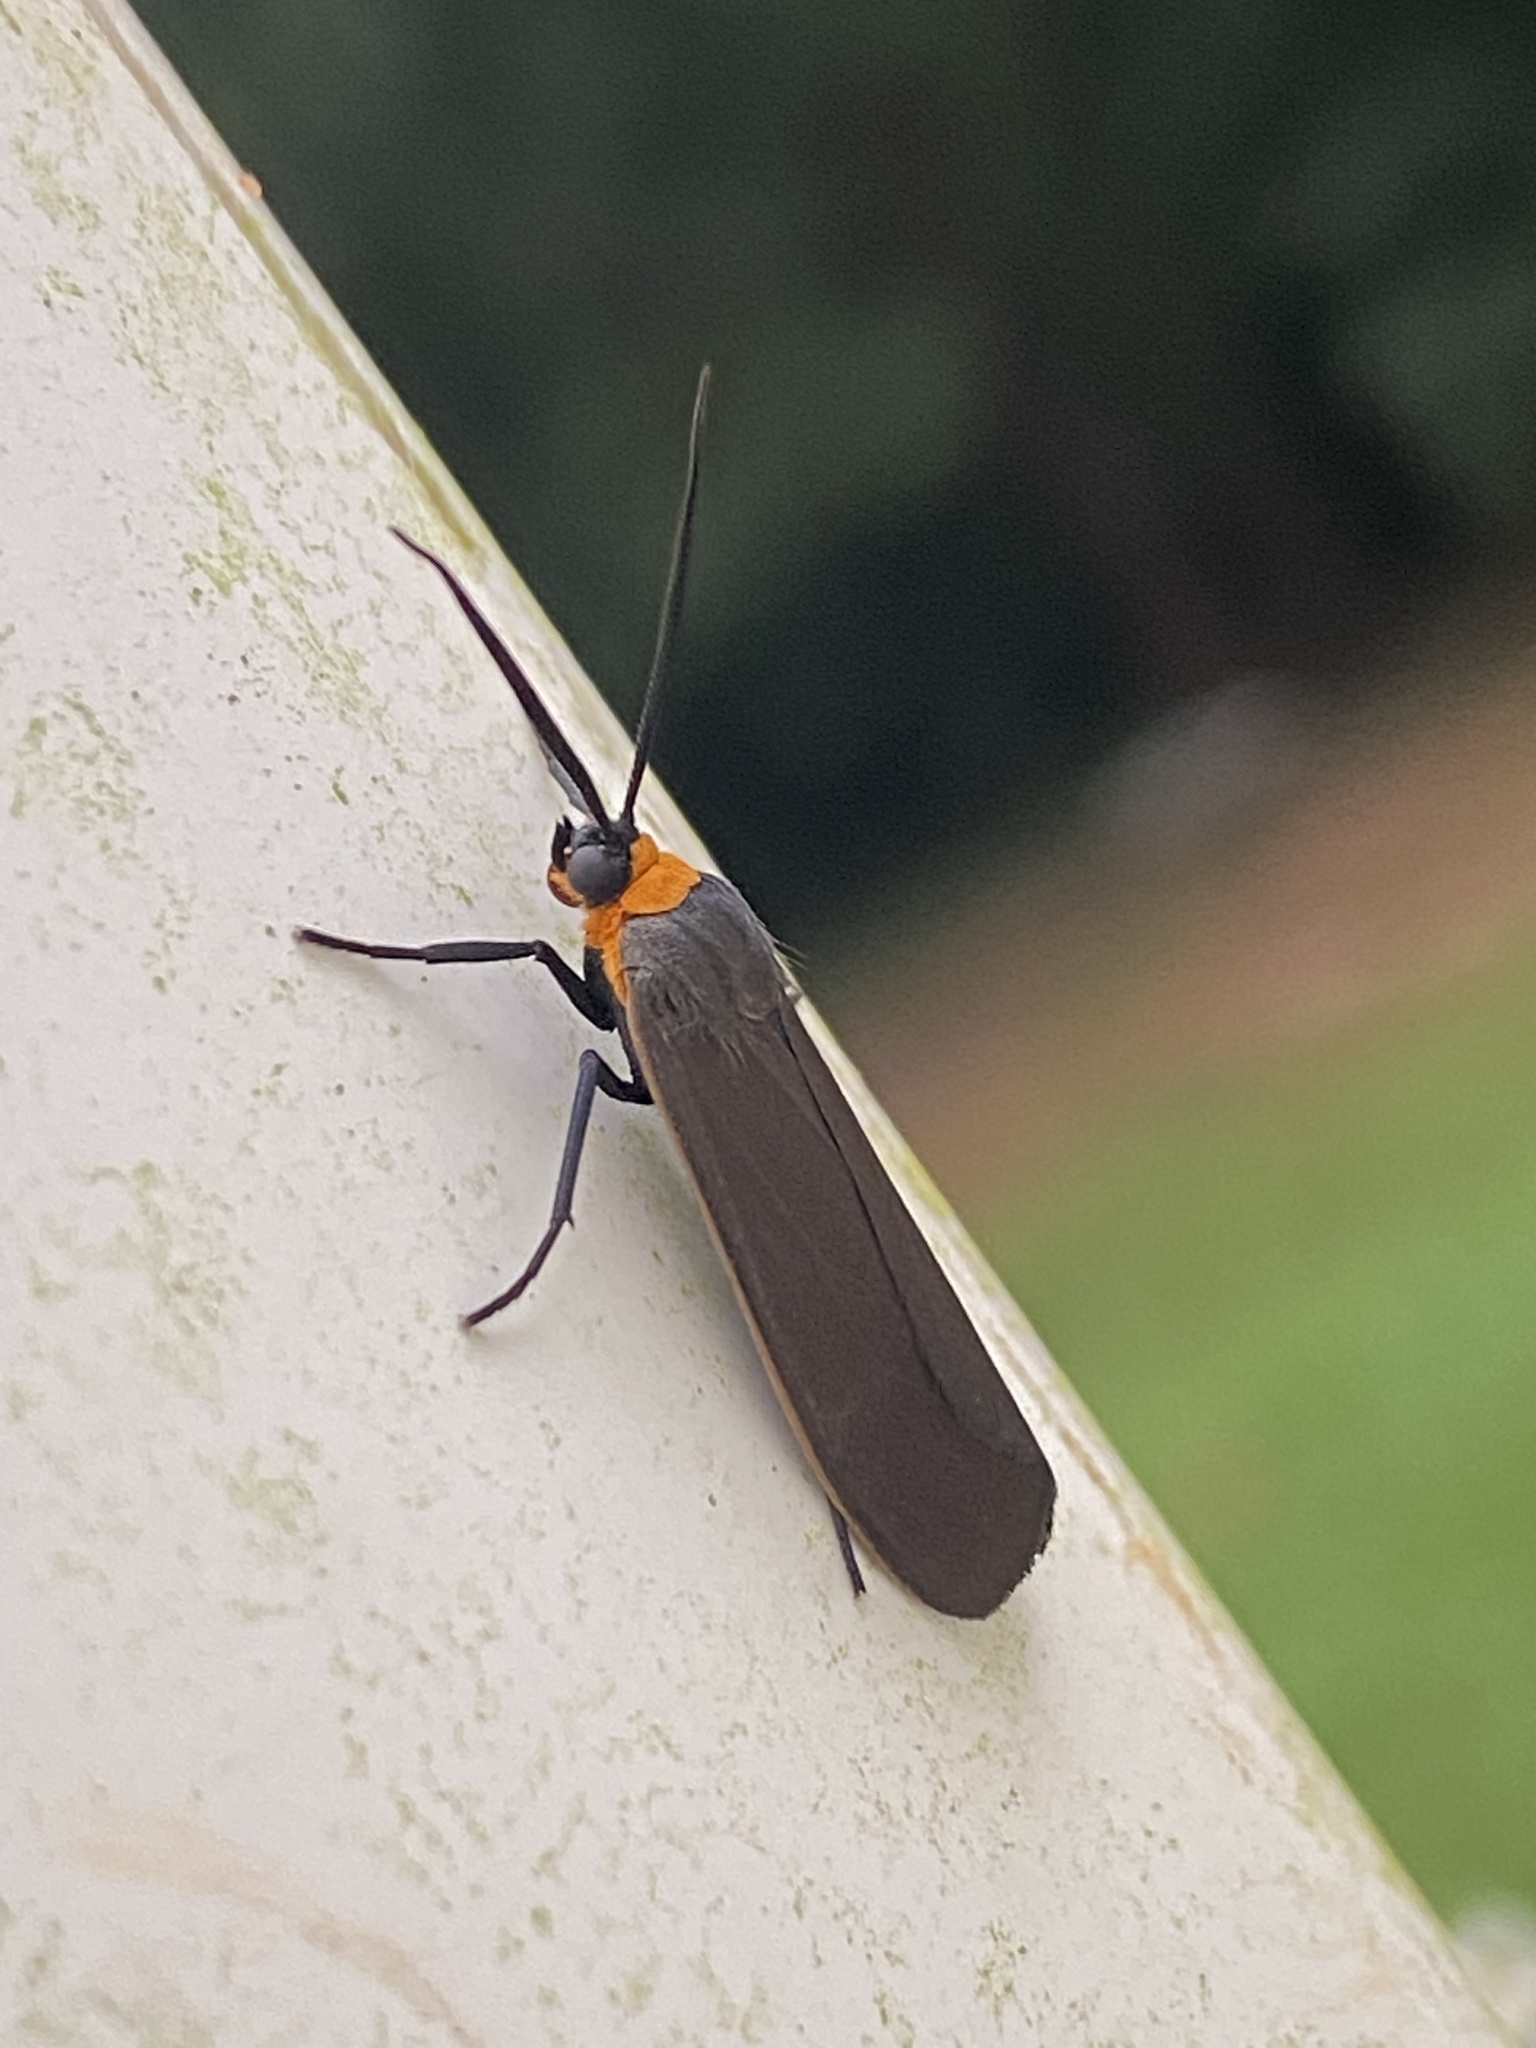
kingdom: Animalia
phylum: Arthropoda
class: Insecta
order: Lepidoptera
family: Erebidae
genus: Cisseps
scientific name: Cisseps fulvicollis
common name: Yellow-collared scape moth
